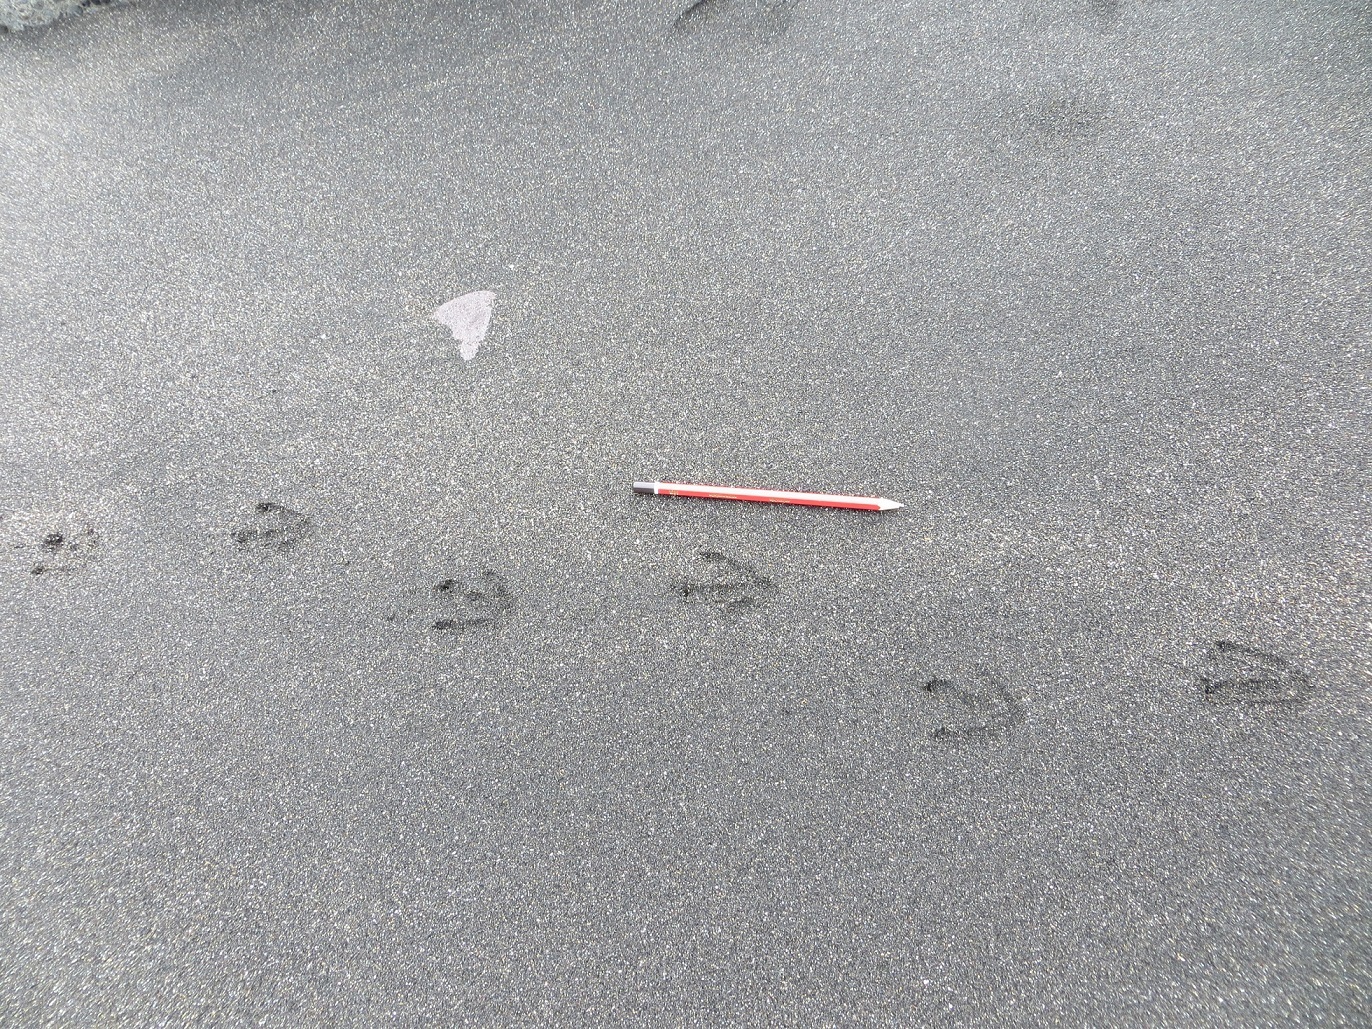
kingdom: Animalia
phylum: Chordata
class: Aves
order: Sphenisciformes
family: Spheniscidae
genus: Eudyptula
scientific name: Eudyptula minor
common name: Little penguin
